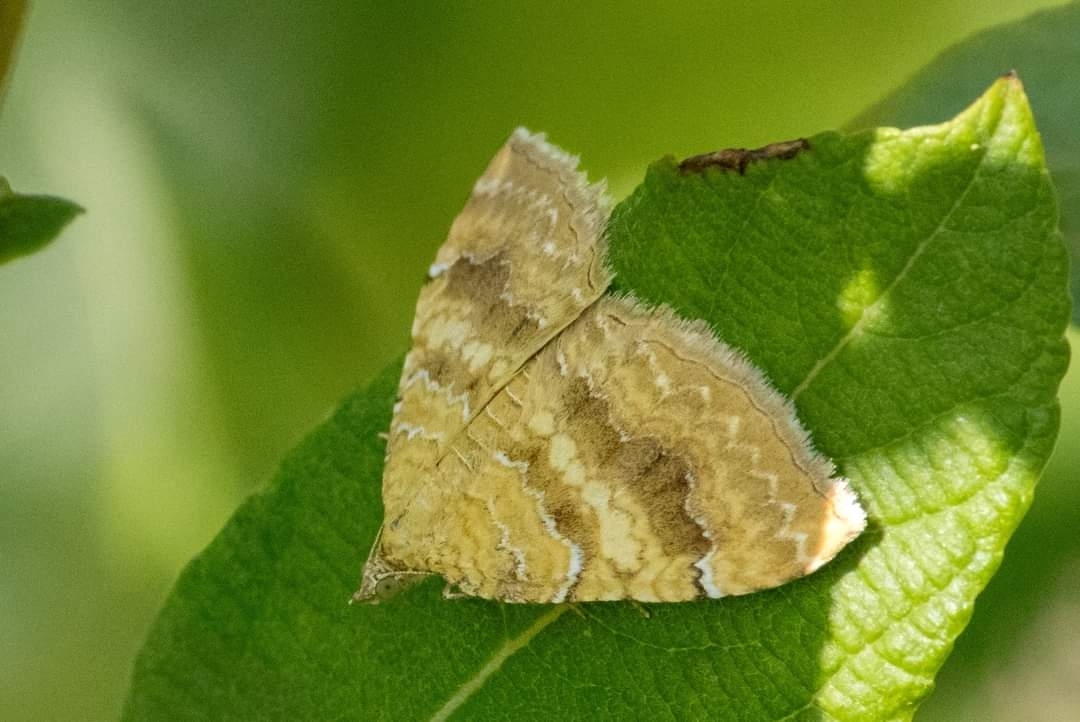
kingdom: Animalia
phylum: Arthropoda
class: Insecta
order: Lepidoptera
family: Geometridae
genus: Camptogramma
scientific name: Camptogramma bilineata
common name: Yellow shell
